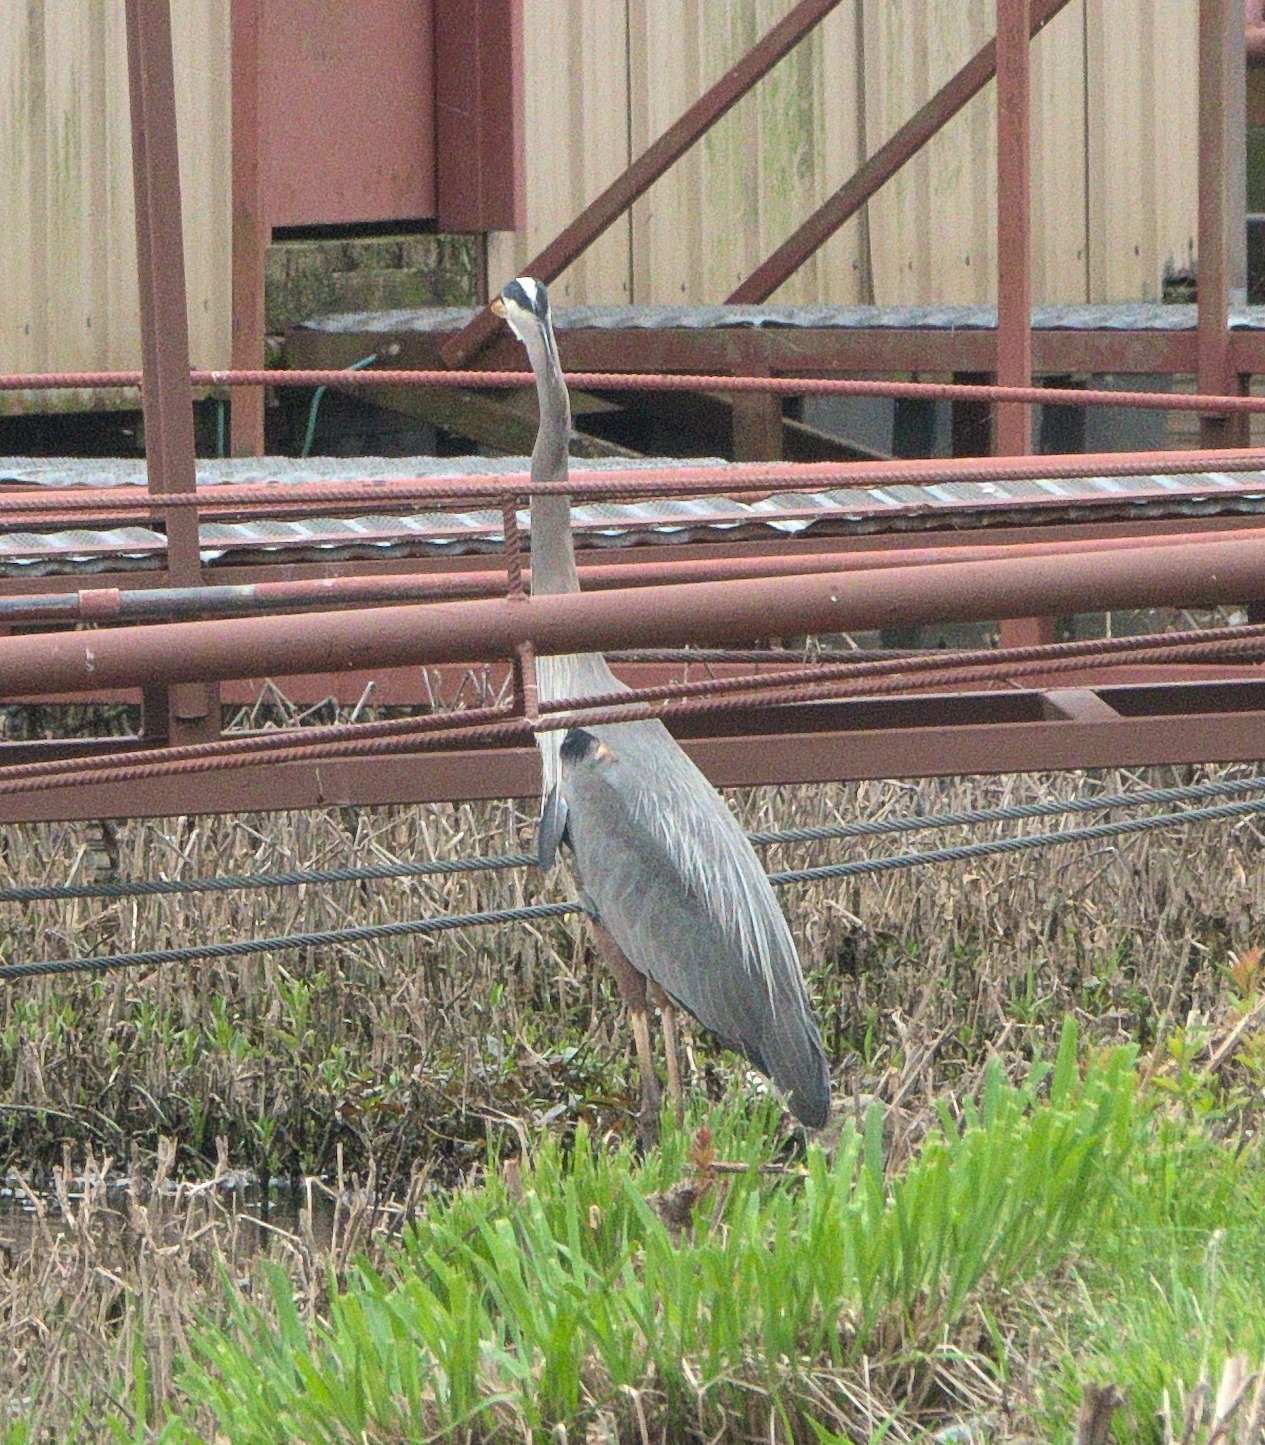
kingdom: Animalia
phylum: Chordata
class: Aves
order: Pelecaniformes
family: Ardeidae
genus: Ardea
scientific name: Ardea herodias
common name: Great blue heron
